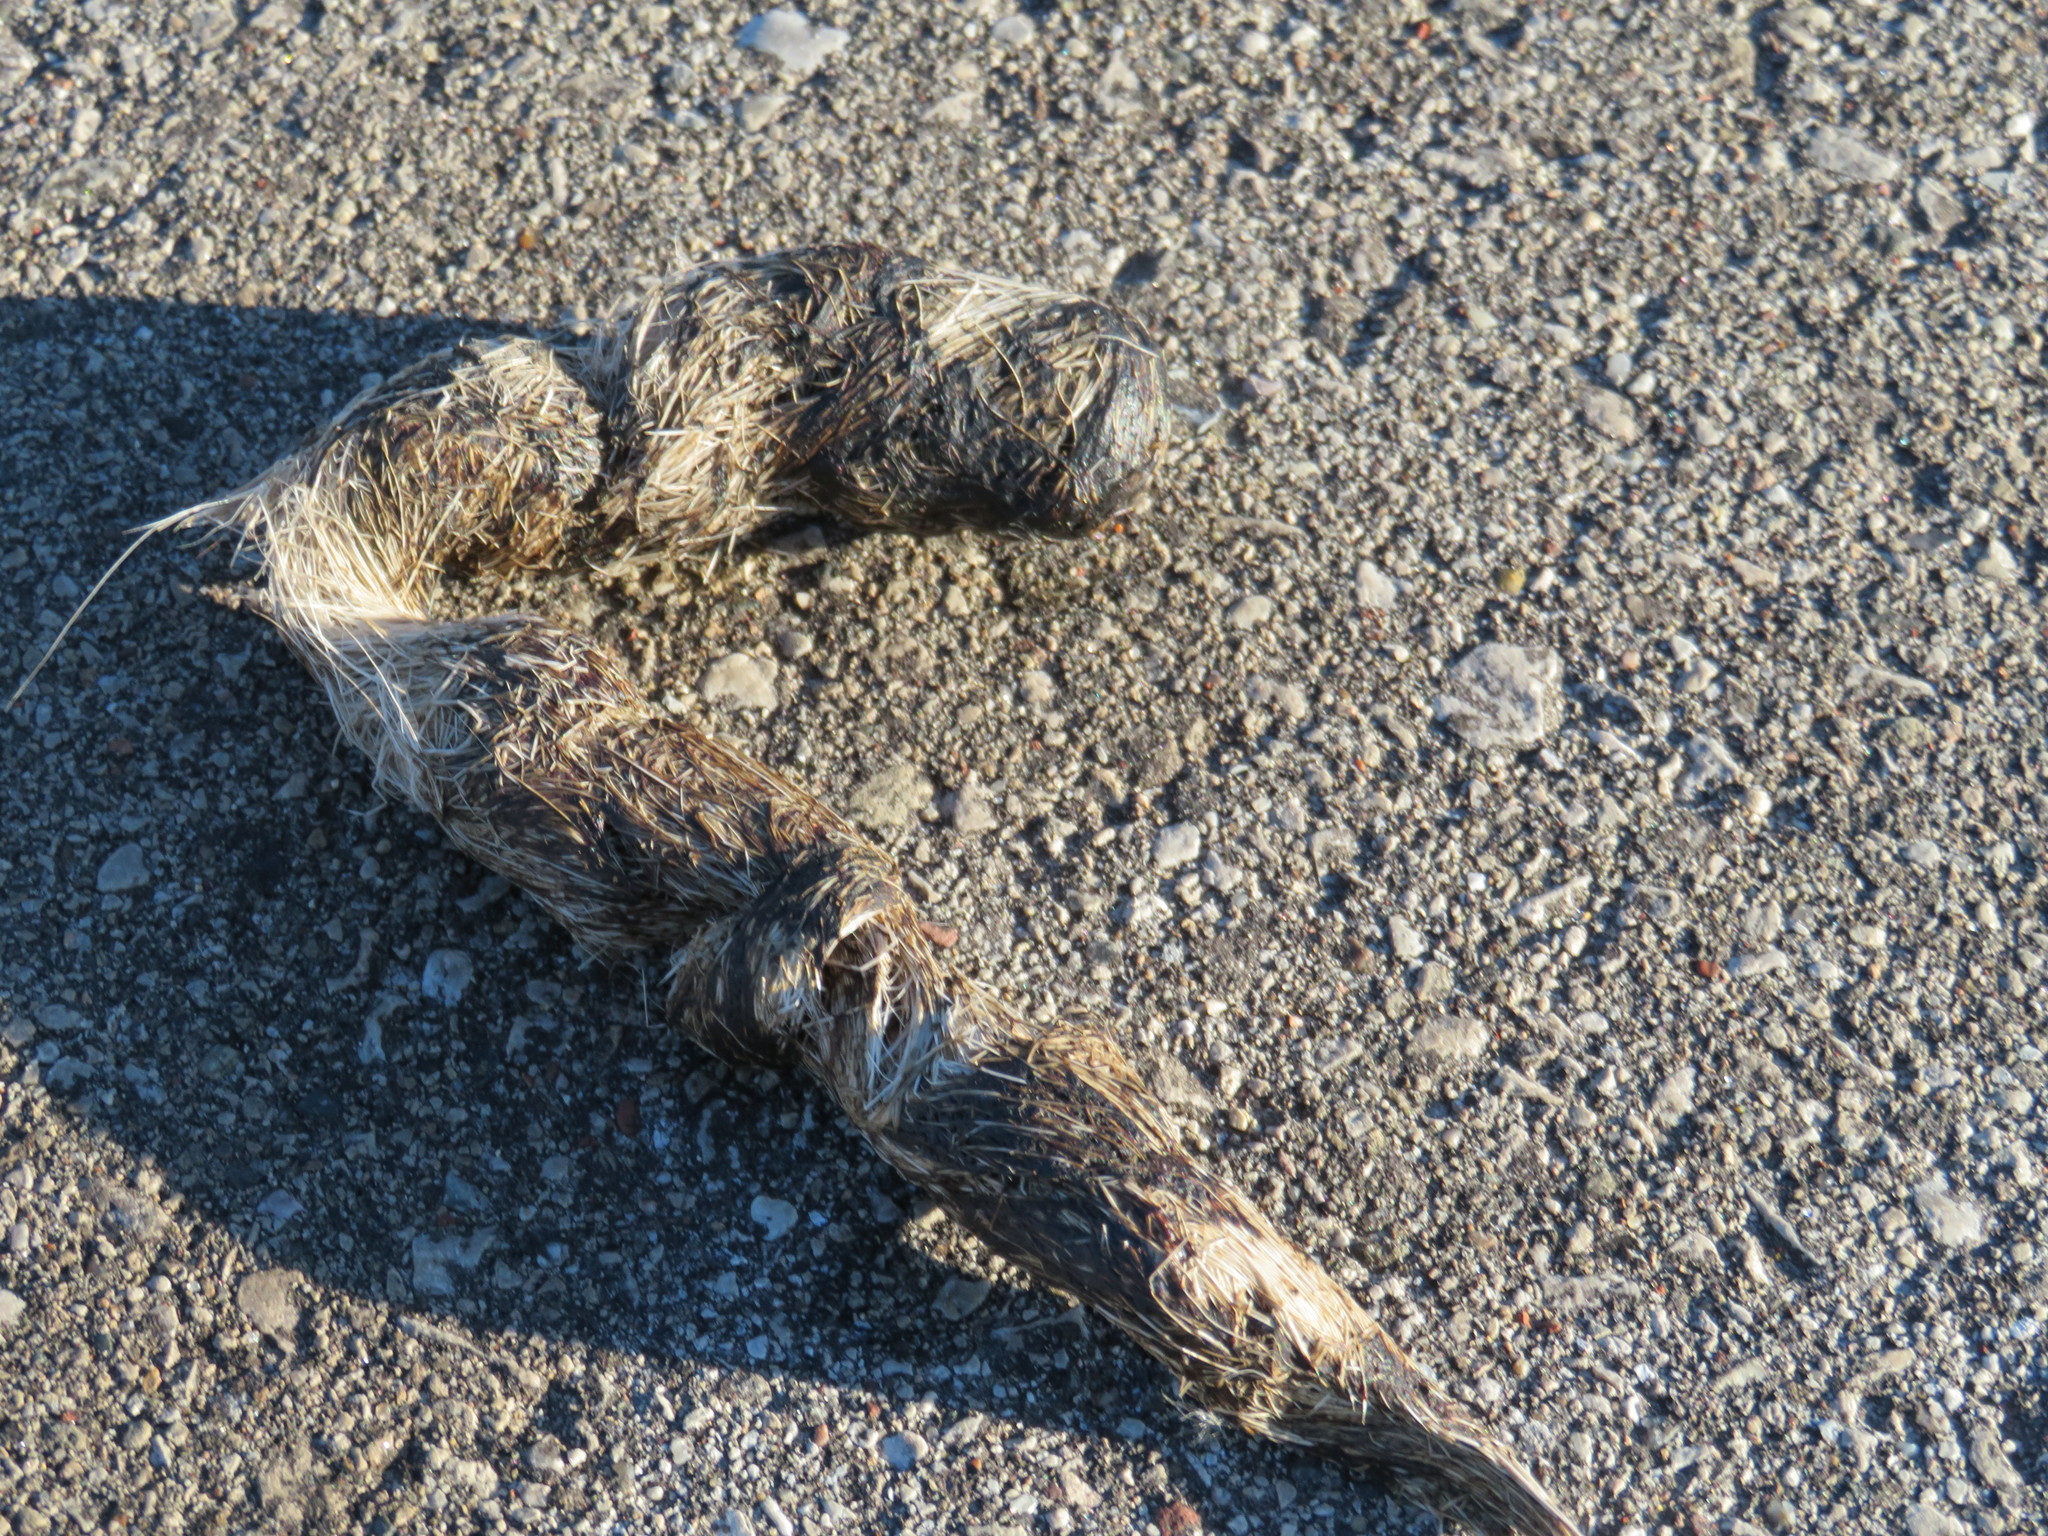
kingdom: Animalia
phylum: Chordata
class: Mammalia
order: Carnivora
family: Canidae
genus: Canis
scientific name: Canis latrans
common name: Coyote
